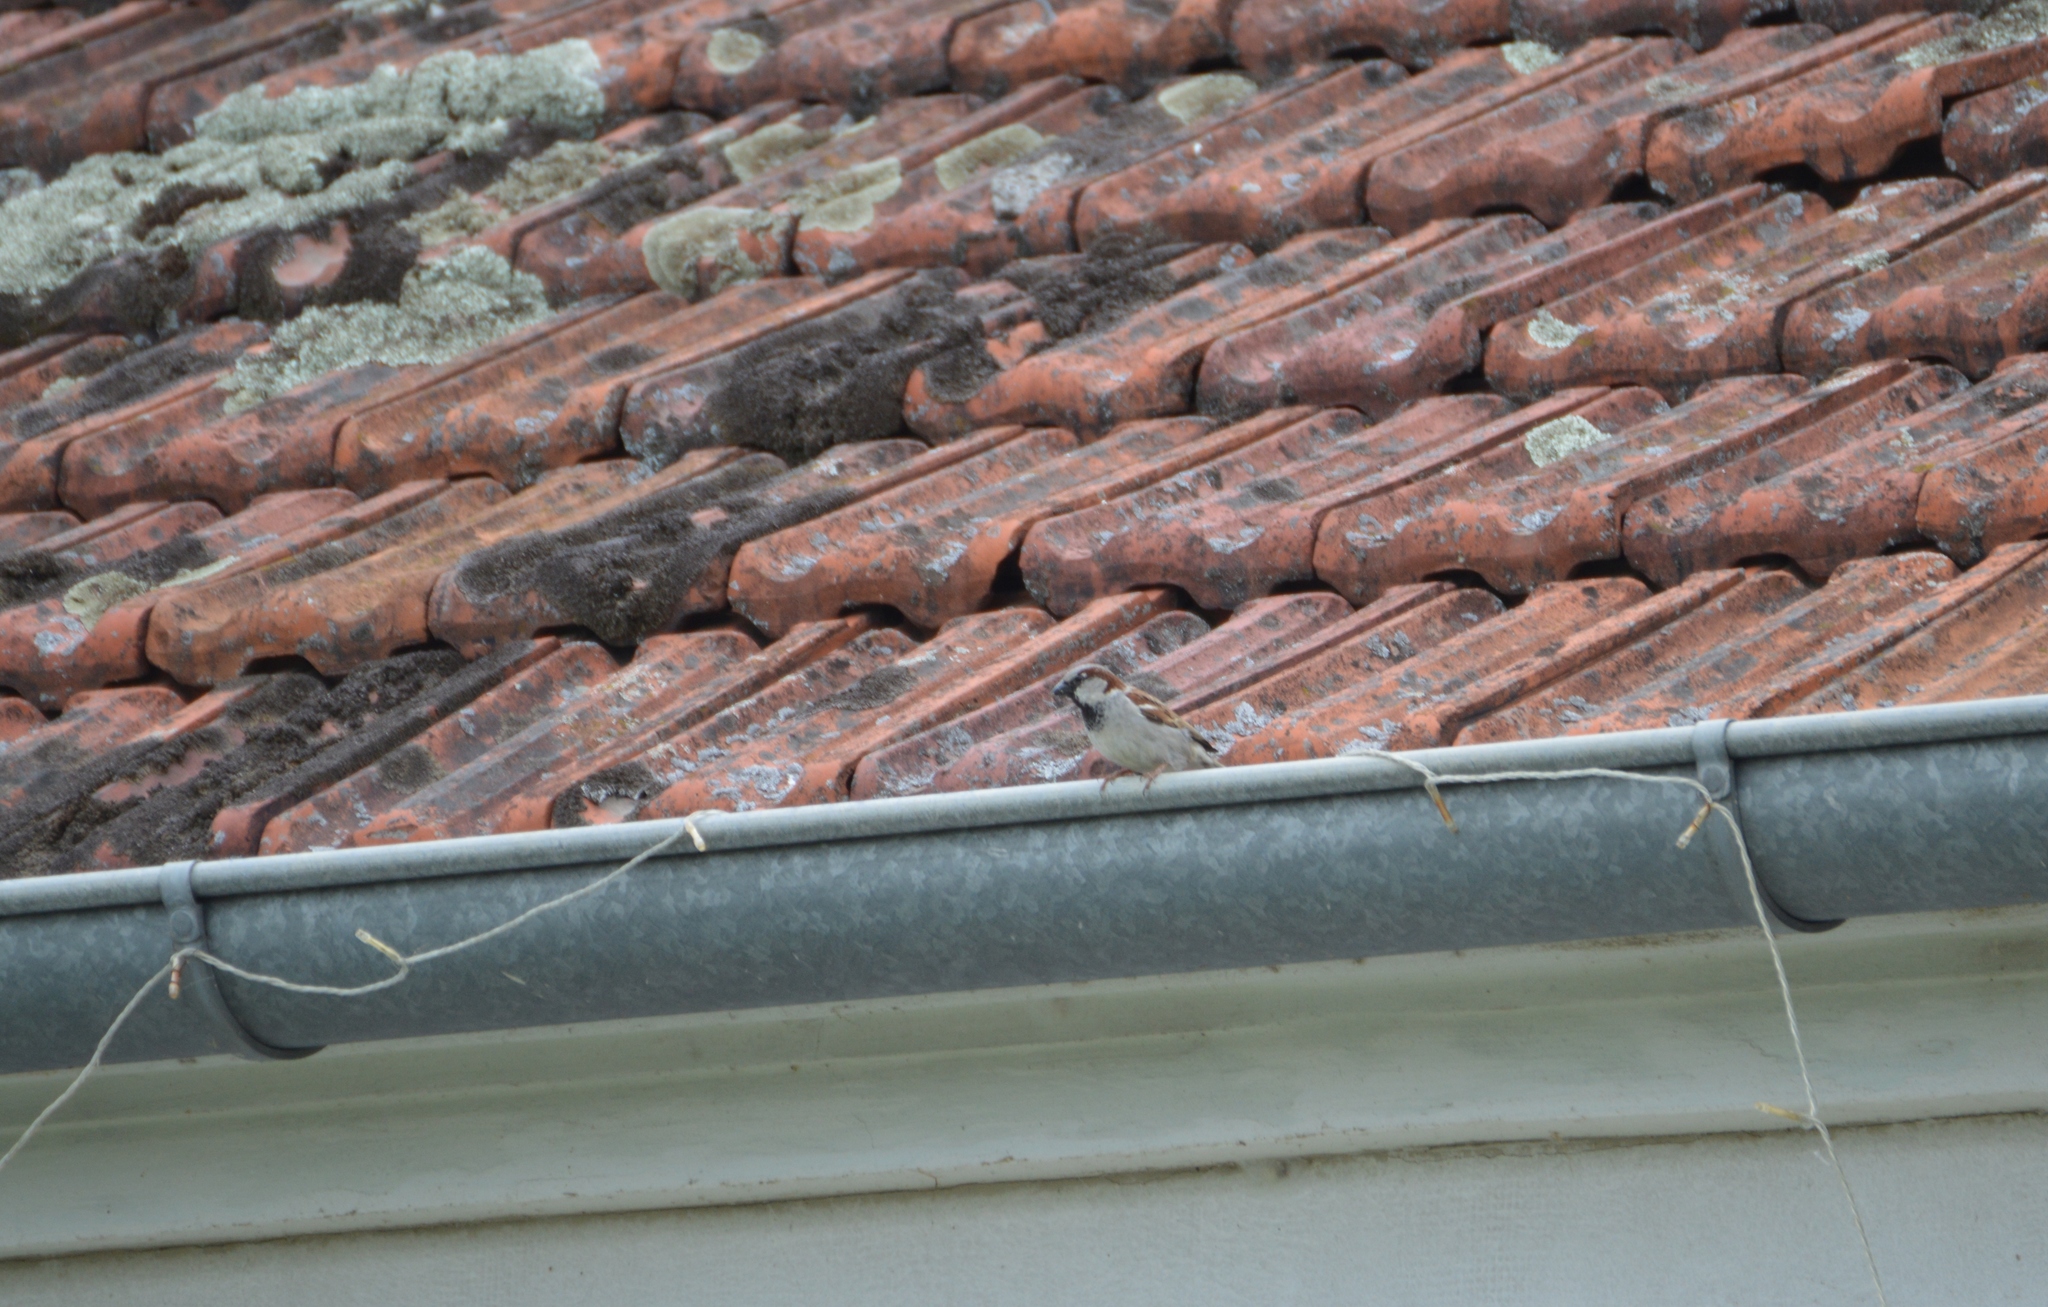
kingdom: Animalia
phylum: Chordata
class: Aves
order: Passeriformes
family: Passeridae
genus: Passer
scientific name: Passer domesticus
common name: House sparrow
